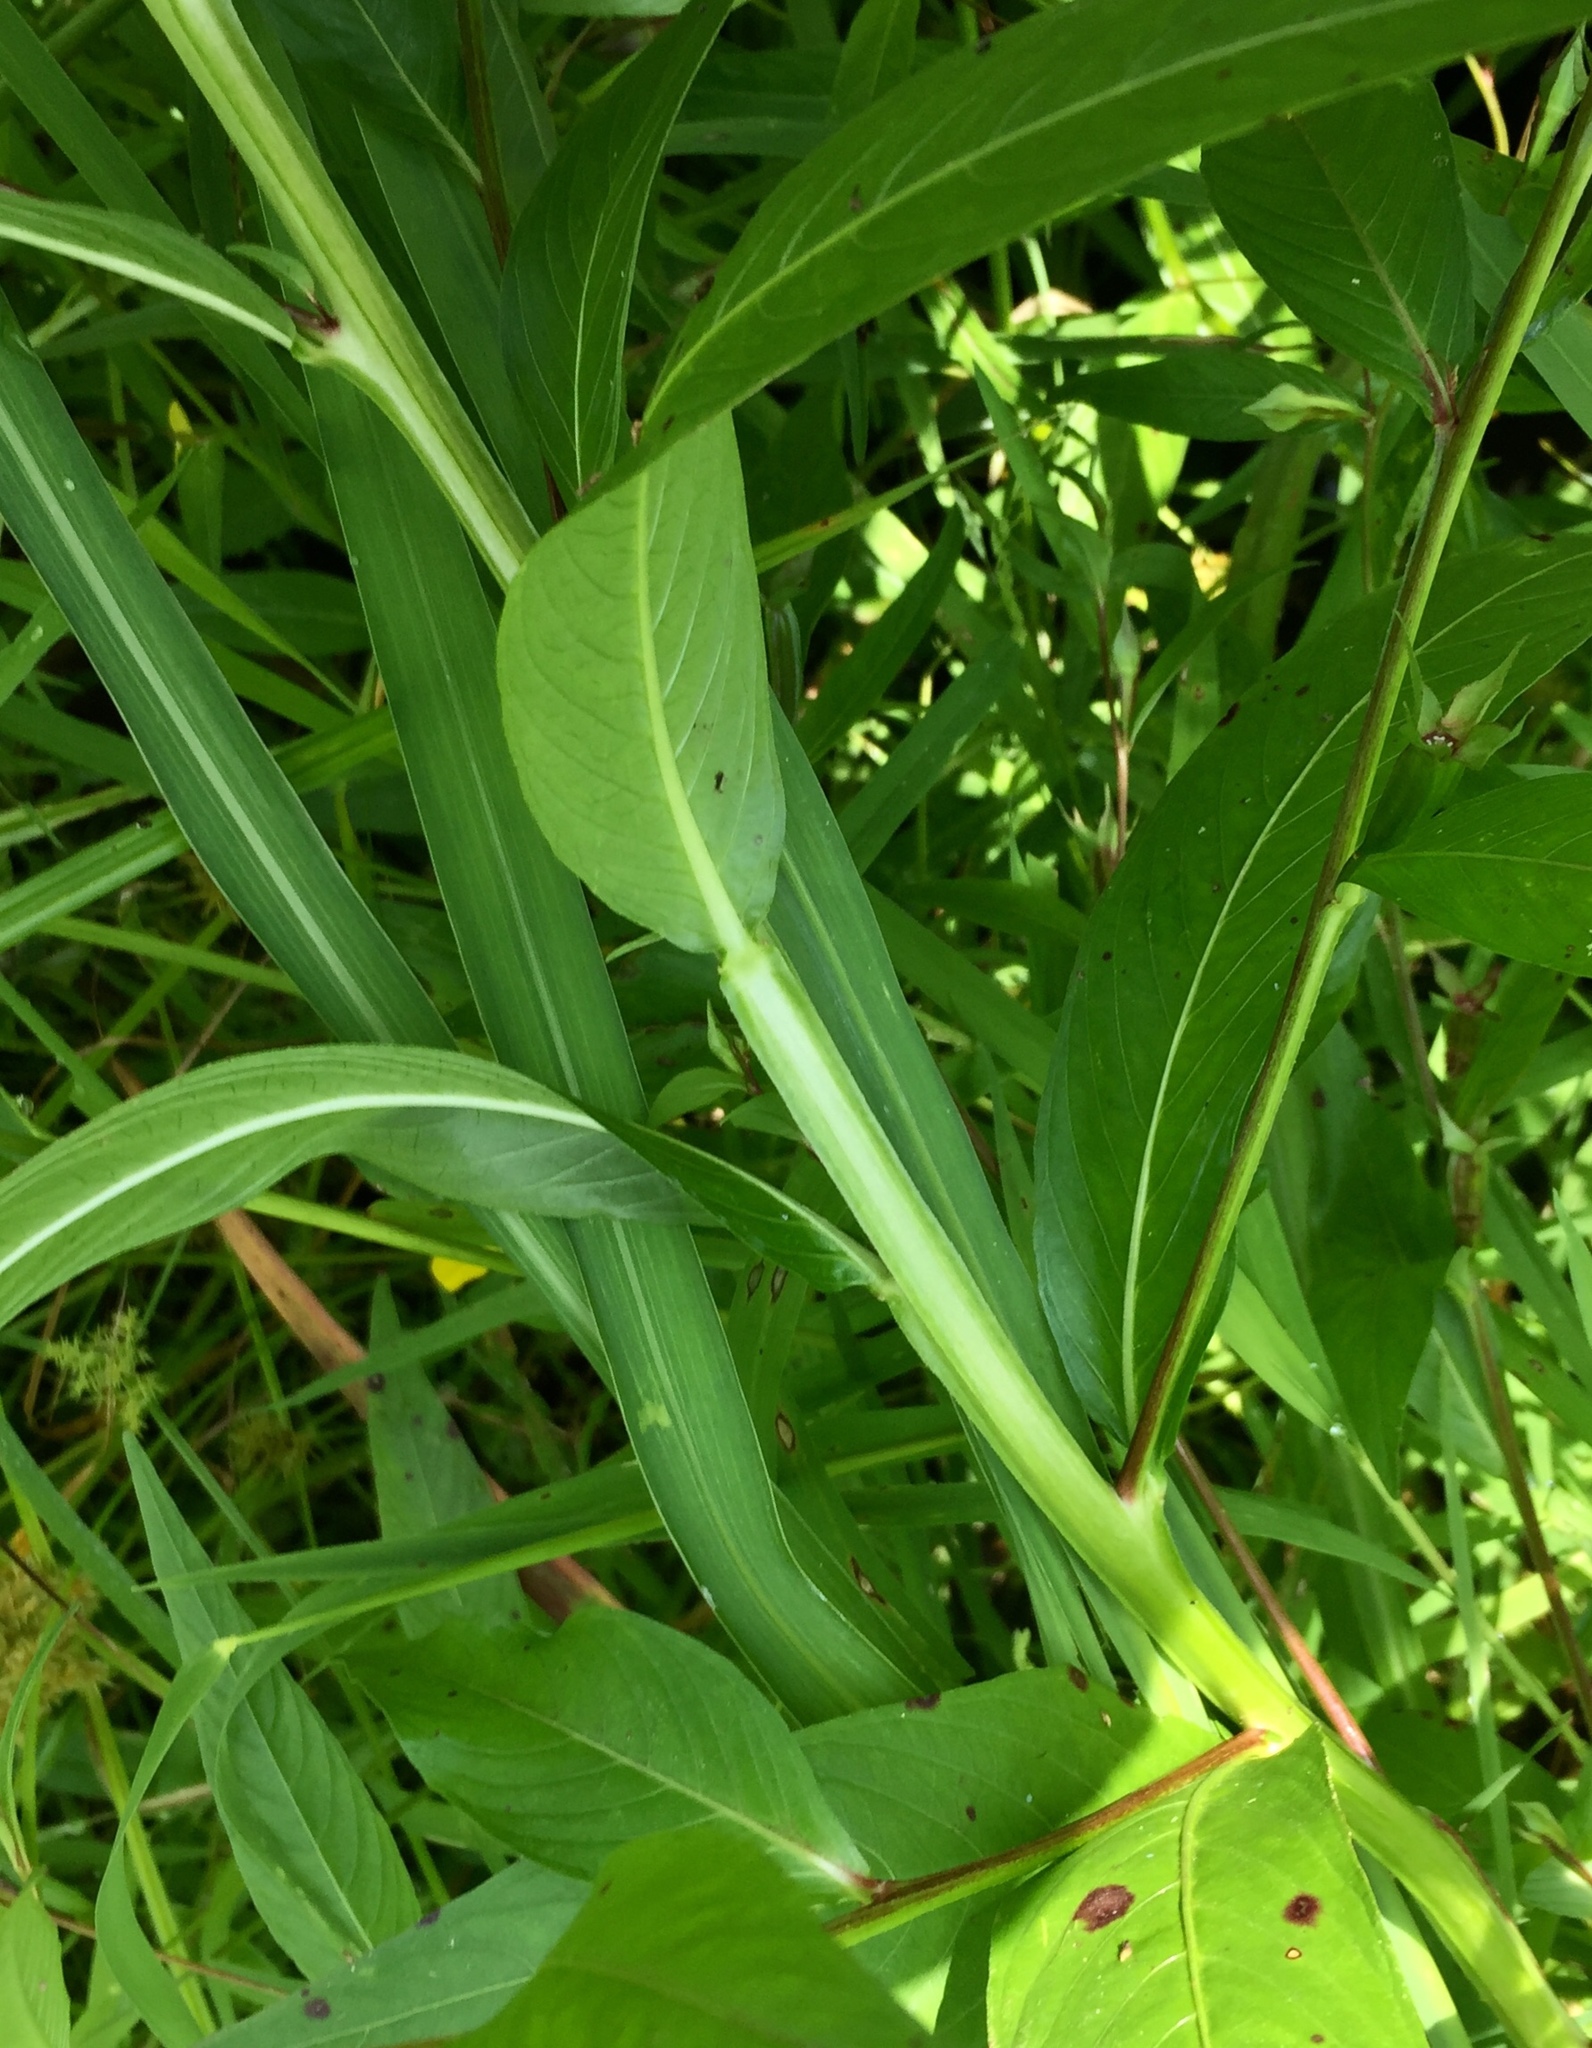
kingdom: Plantae
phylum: Tracheophyta
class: Magnoliopsida
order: Myrtales
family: Onagraceae
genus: Ludwigia
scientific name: Ludwigia decurrens
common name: Winged water-primrose
